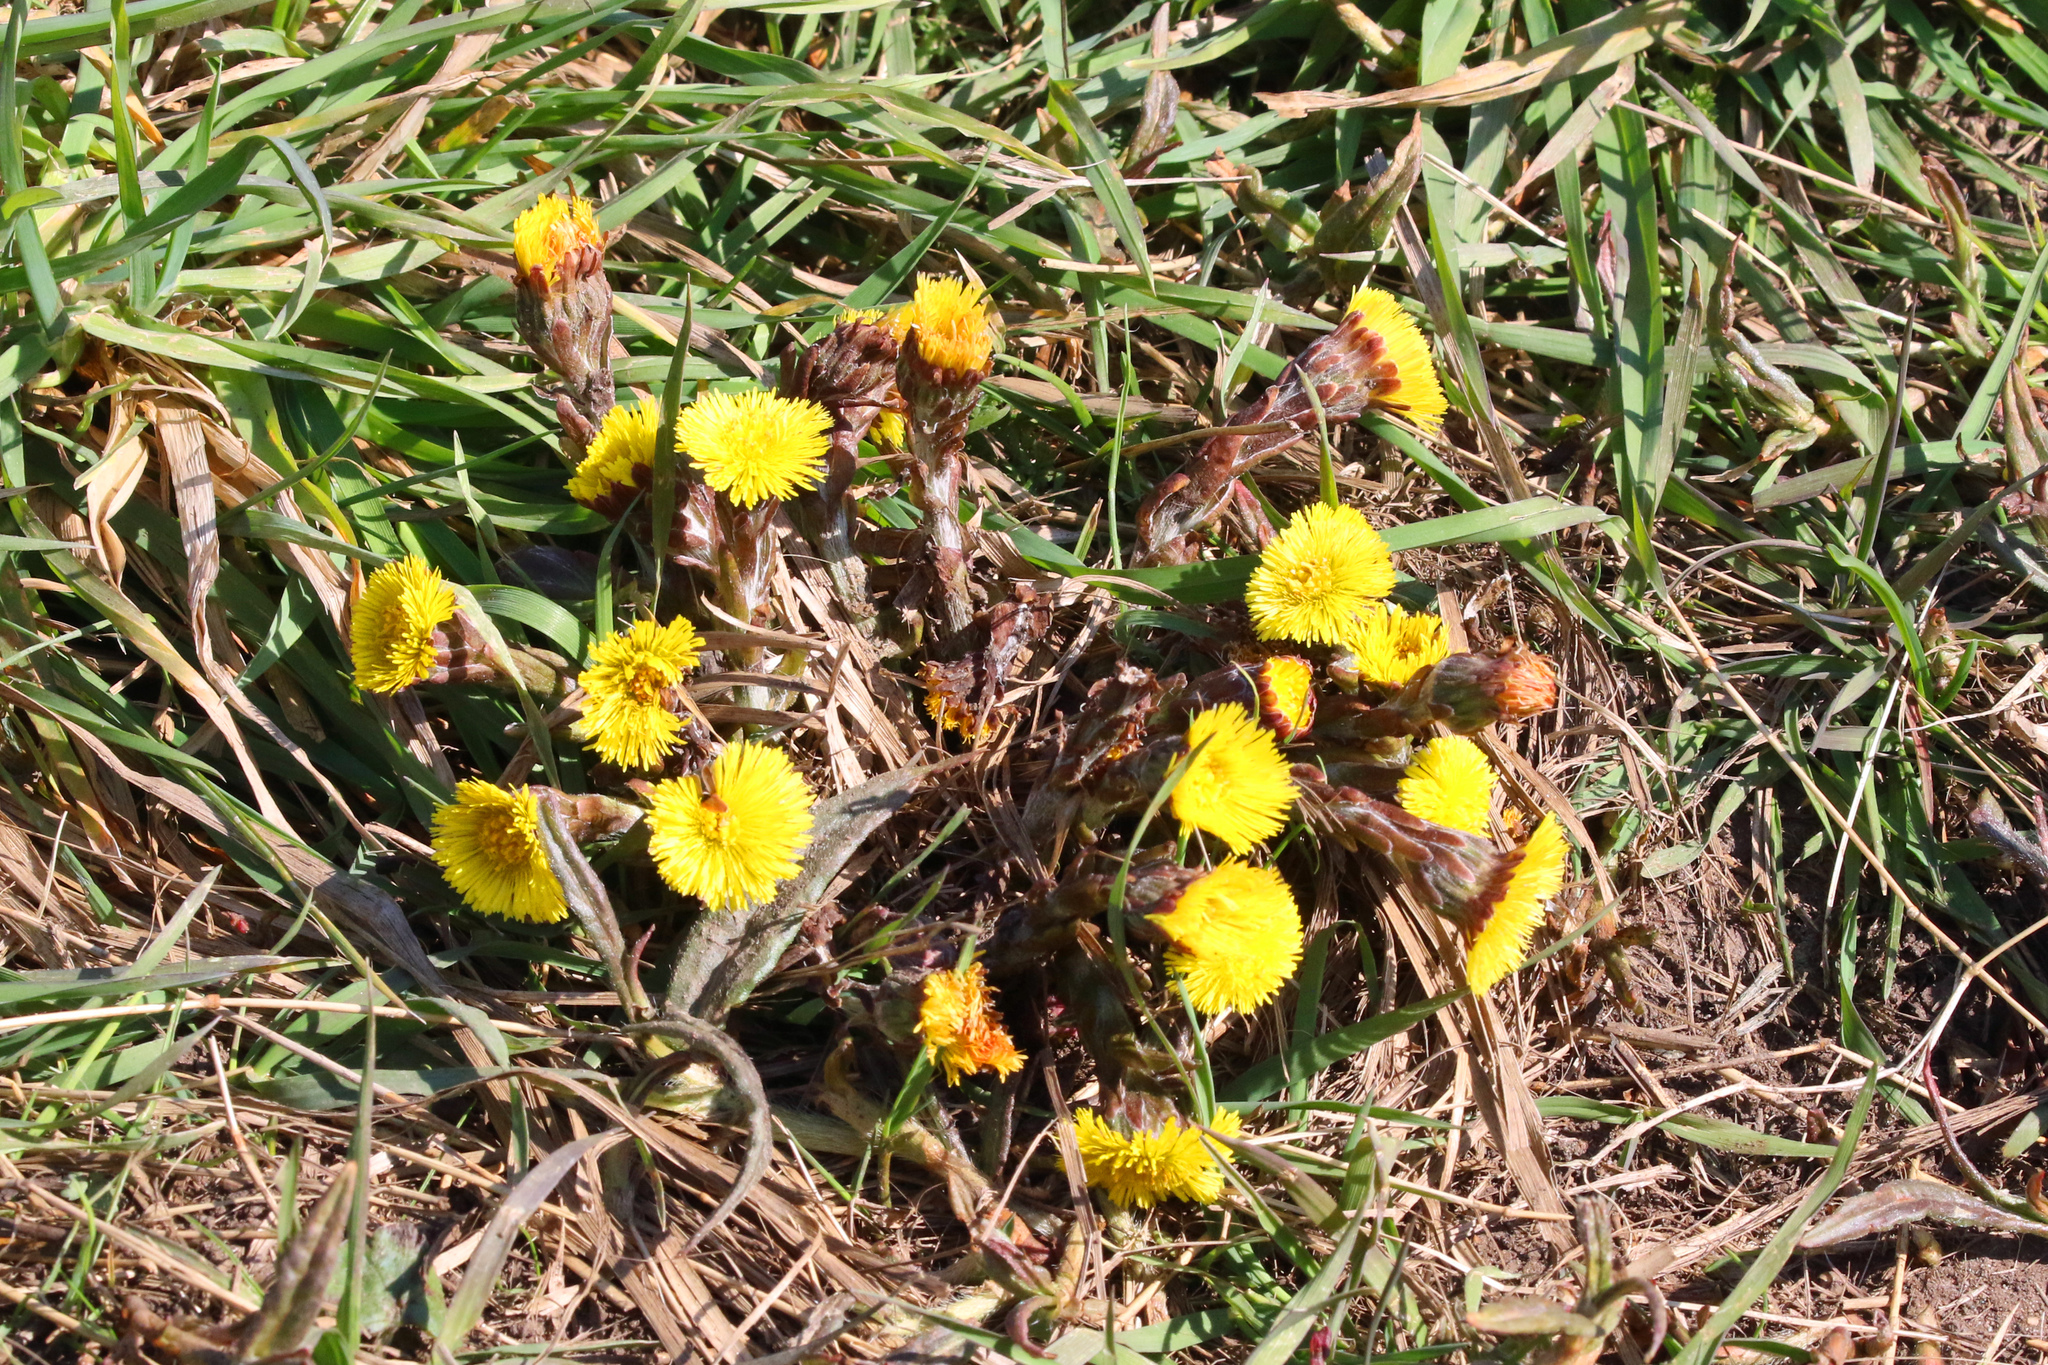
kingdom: Plantae
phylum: Tracheophyta
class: Magnoliopsida
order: Asterales
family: Asteraceae
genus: Tussilago
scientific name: Tussilago farfara
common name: Coltsfoot
